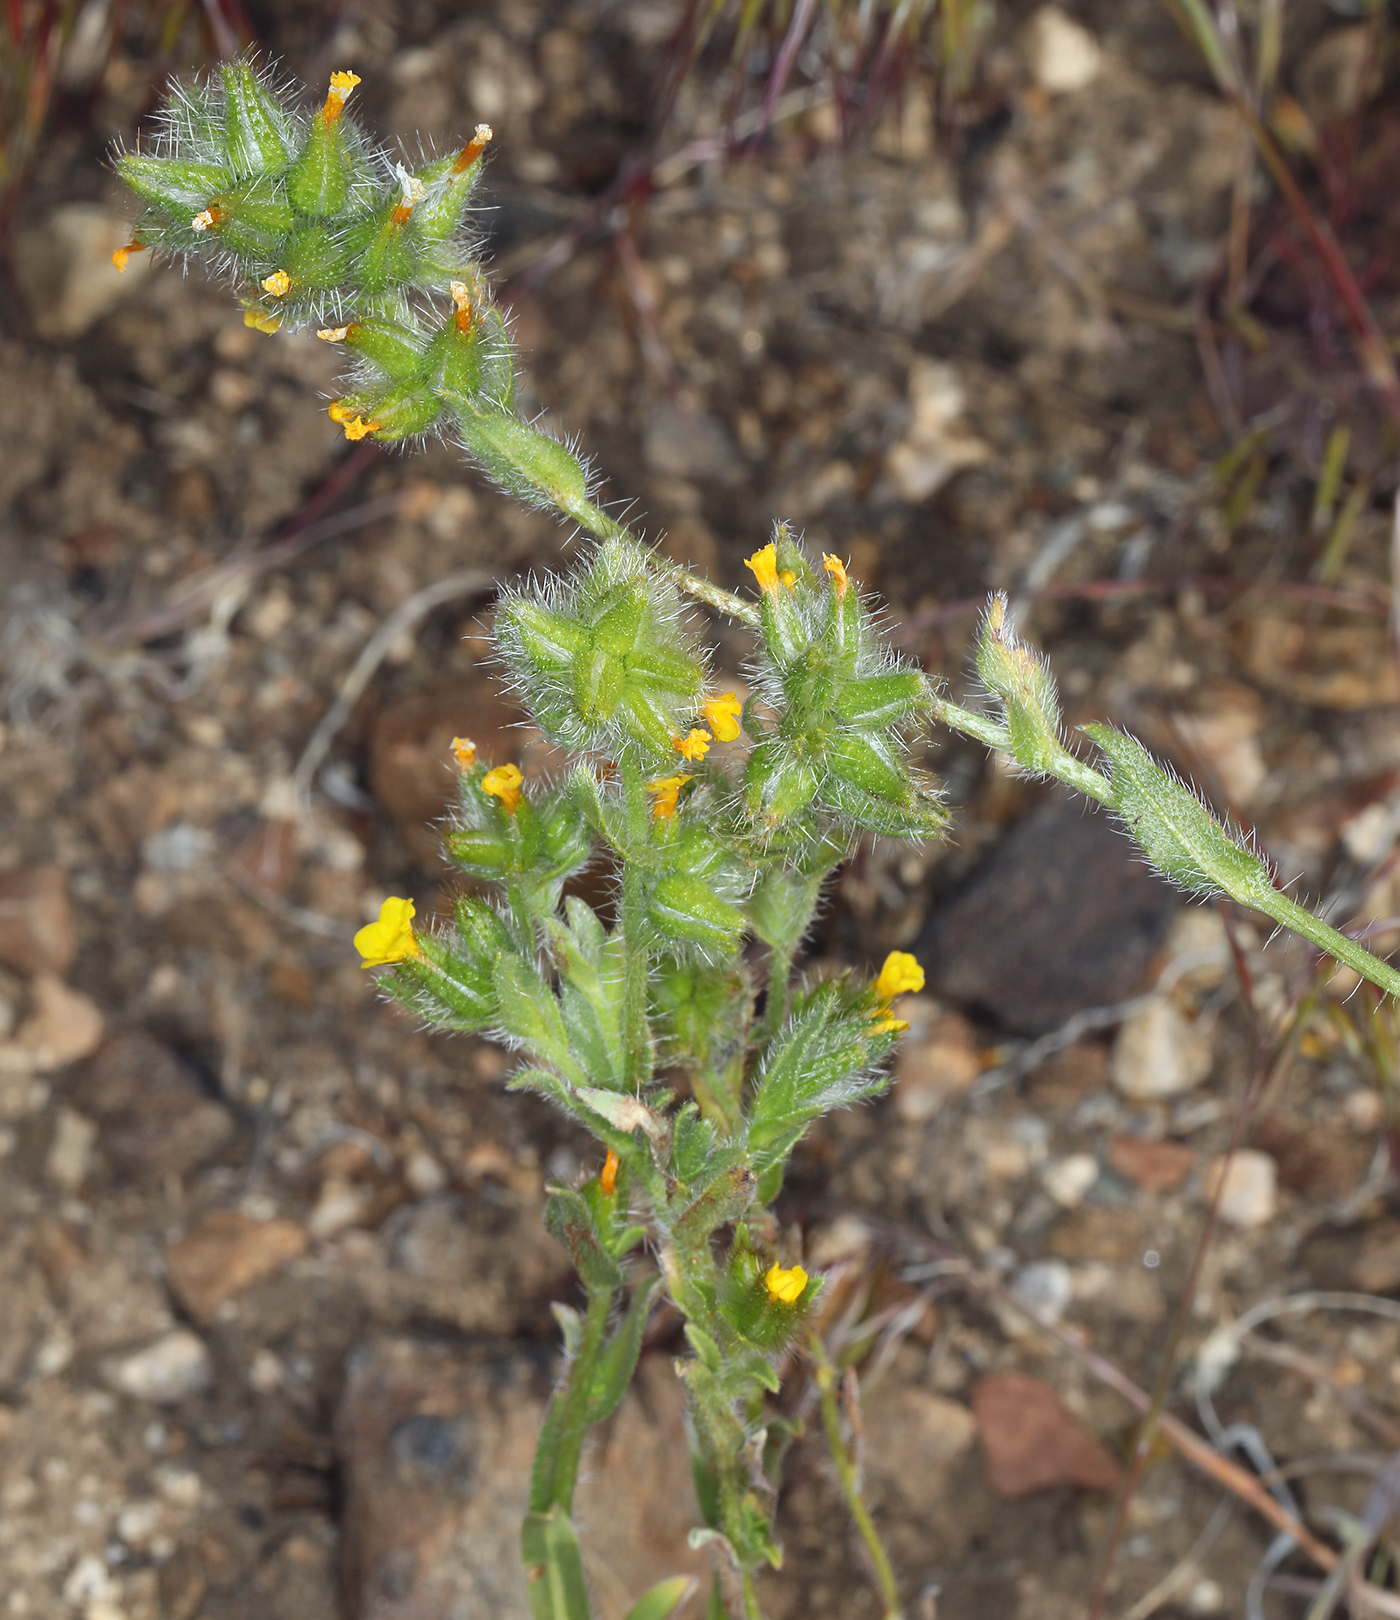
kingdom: Plantae
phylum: Tracheophyta
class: Magnoliopsida
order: Boraginales
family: Boraginaceae
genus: Amsinckia
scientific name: Amsinckia tessellata
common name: Tessellate fiddleneck
